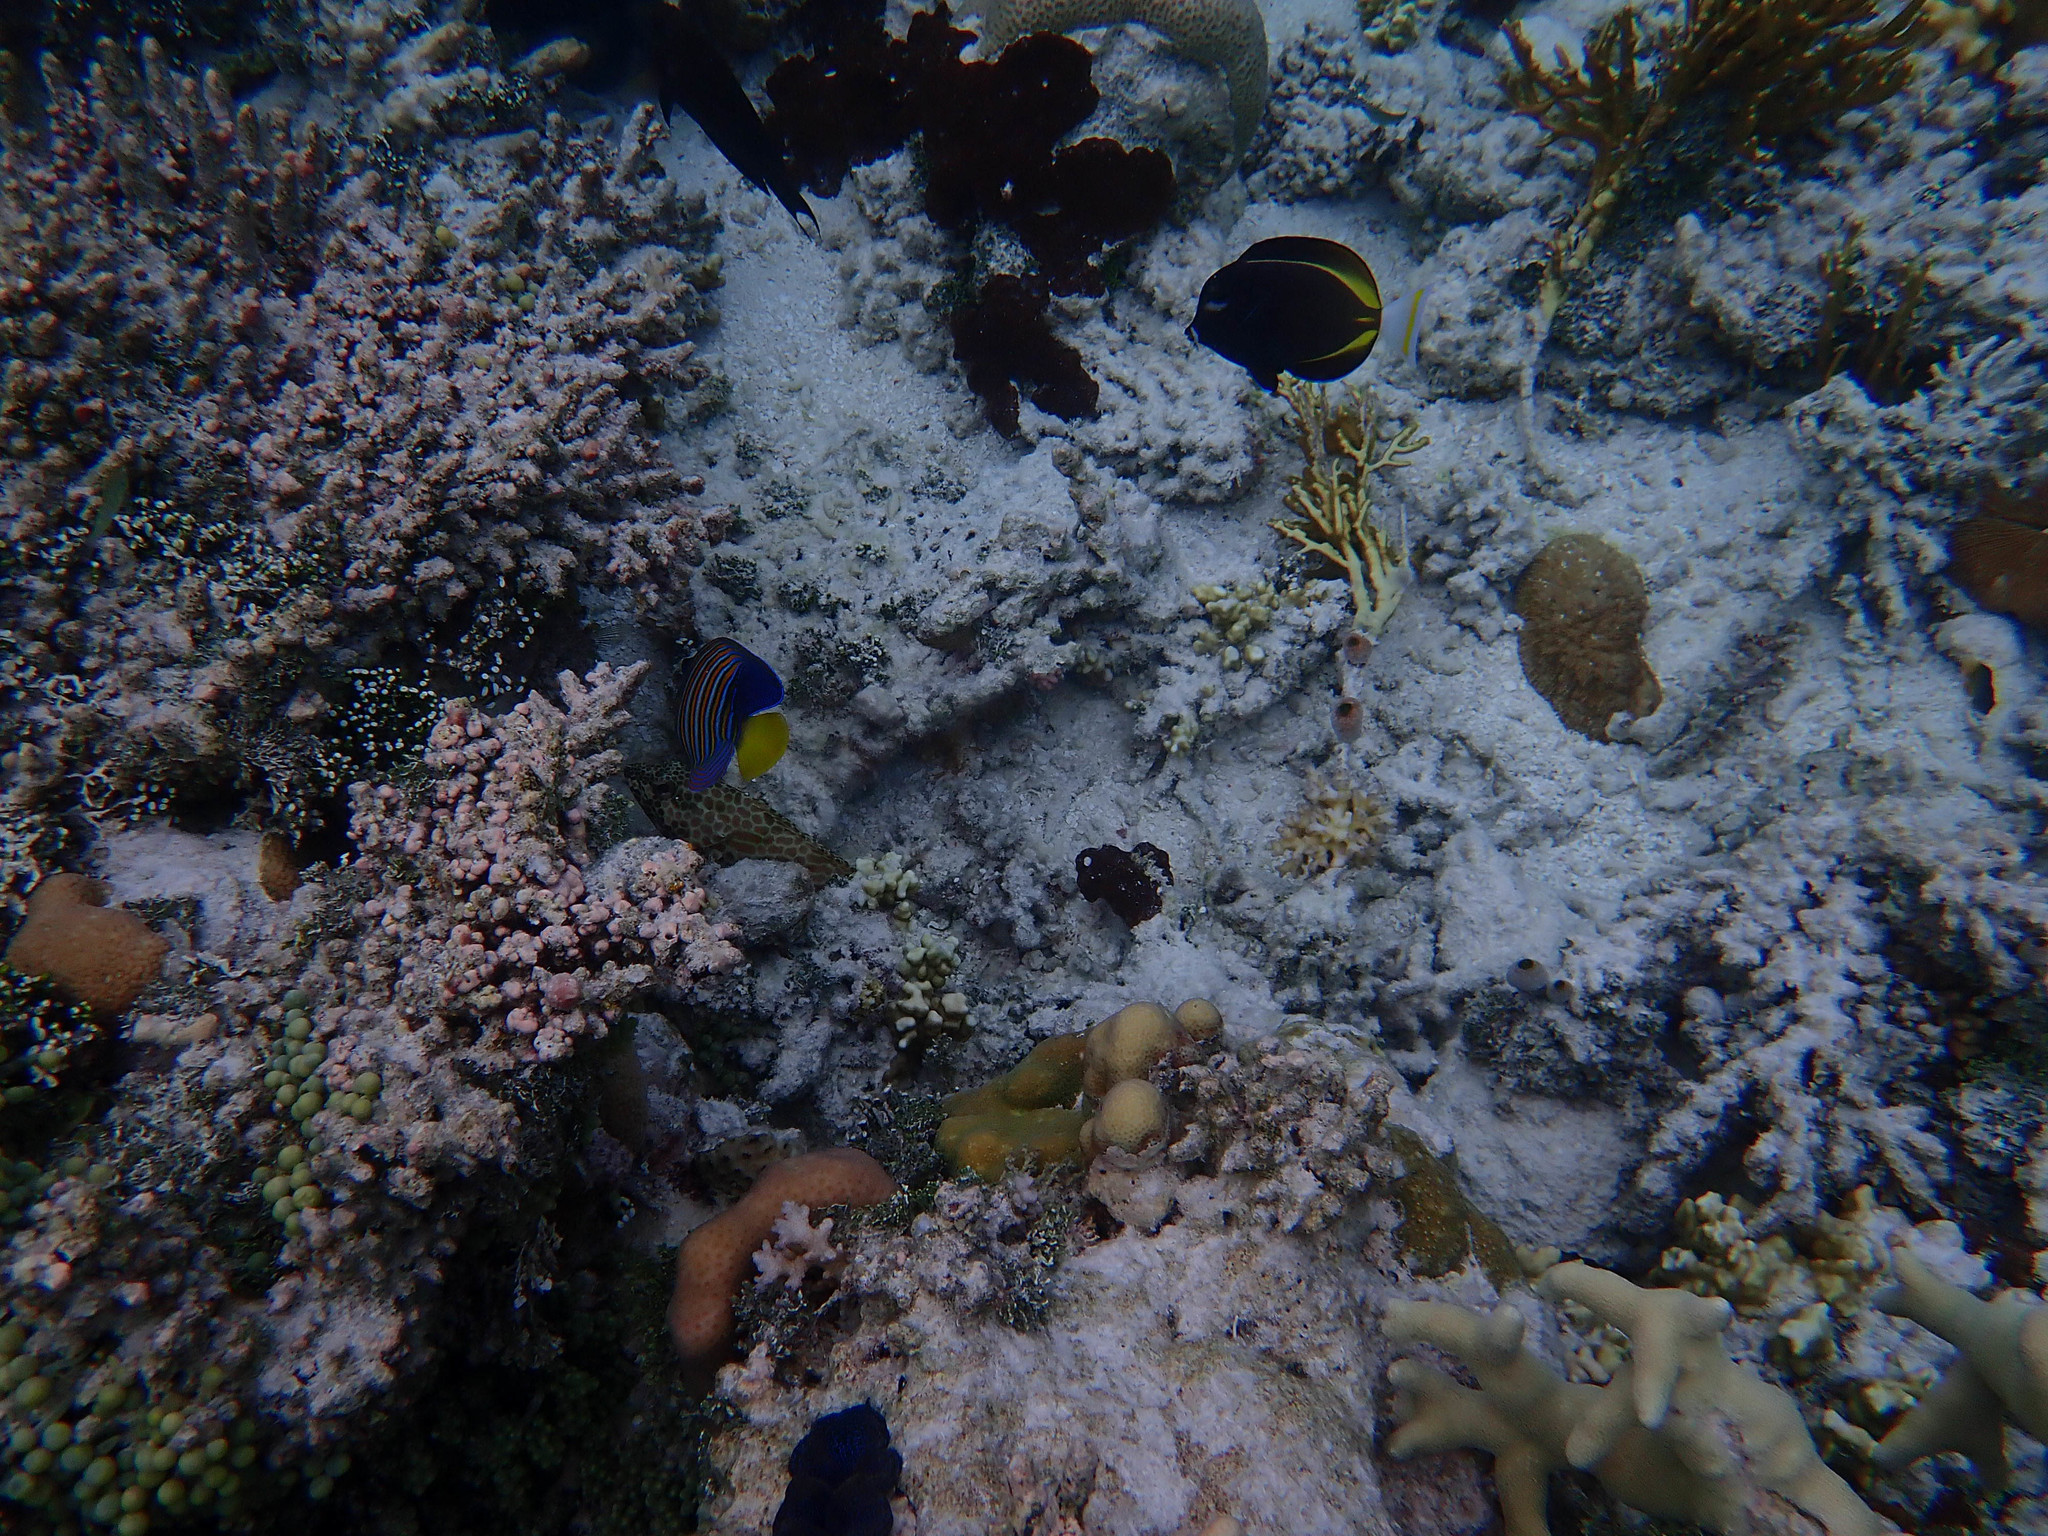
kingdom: Animalia
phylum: Chordata
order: Perciformes
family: Acanthuridae
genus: Acanthurus
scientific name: Acanthurus nigricans
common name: Whitecheek surgeonfish
